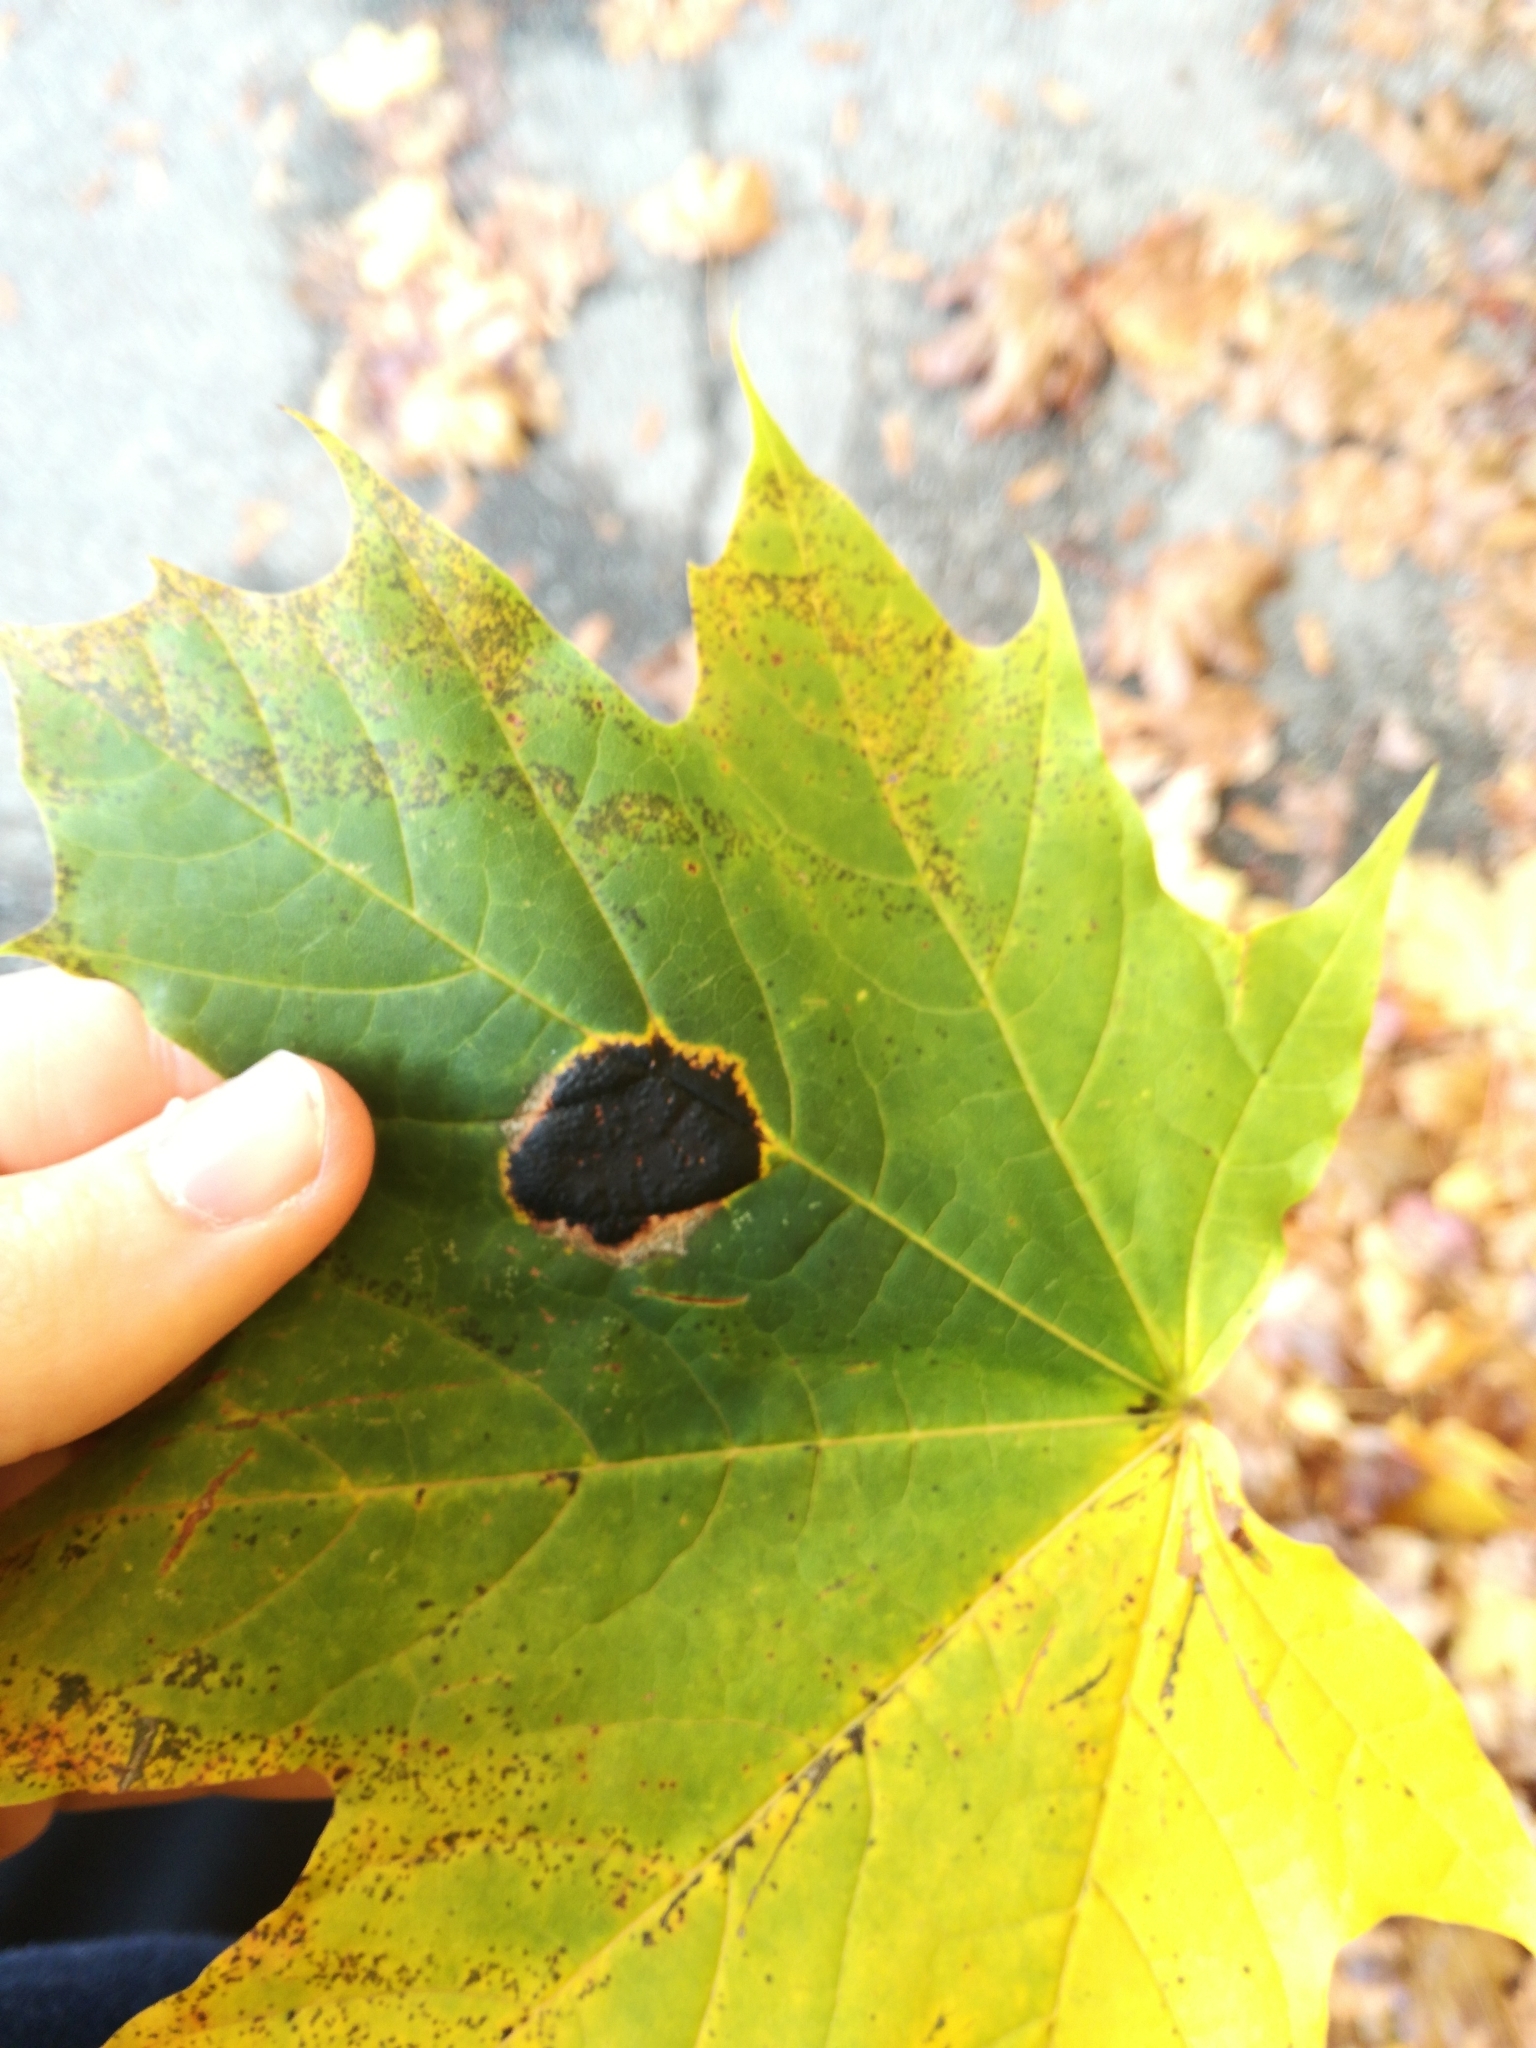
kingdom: Fungi
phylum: Ascomycota
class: Leotiomycetes
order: Rhytismatales
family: Rhytismataceae
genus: Rhytisma
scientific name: Rhytisma acerinum
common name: European tar spot
